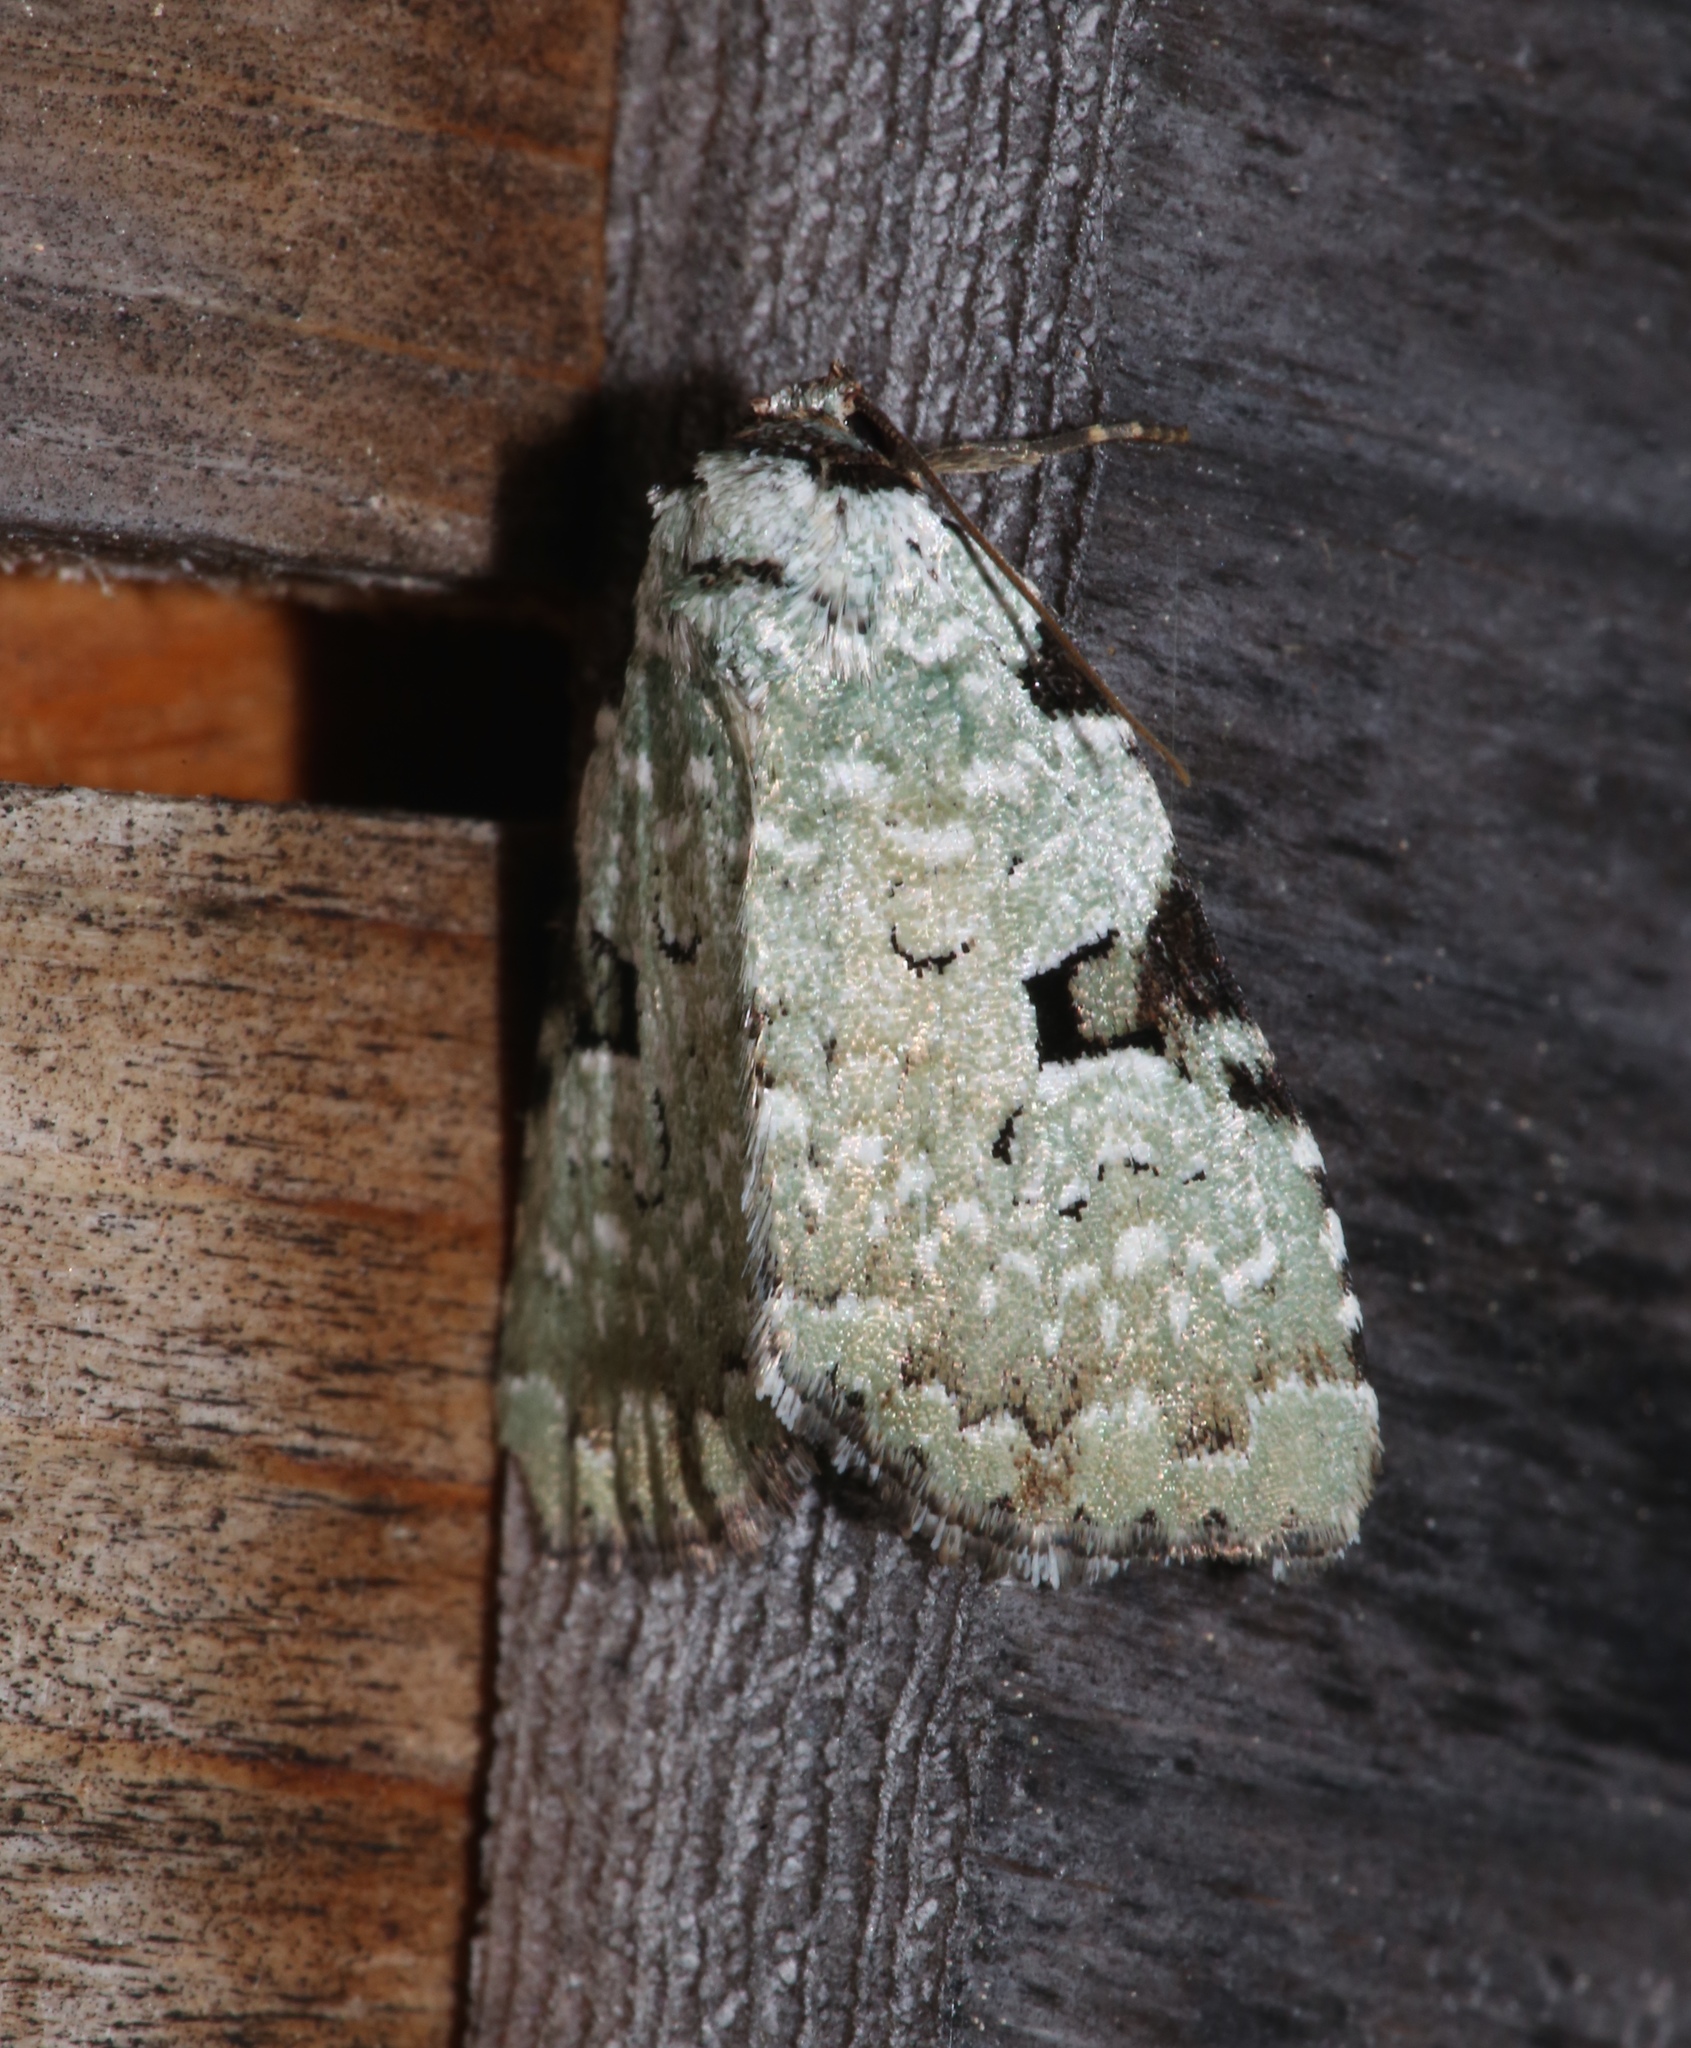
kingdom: Animalia
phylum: Arthropoda
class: Insecta
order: Lepidoptera
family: Noctuidae
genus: Leuconycta
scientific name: Leuconycta diphteroides
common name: Green leuconycta moth
